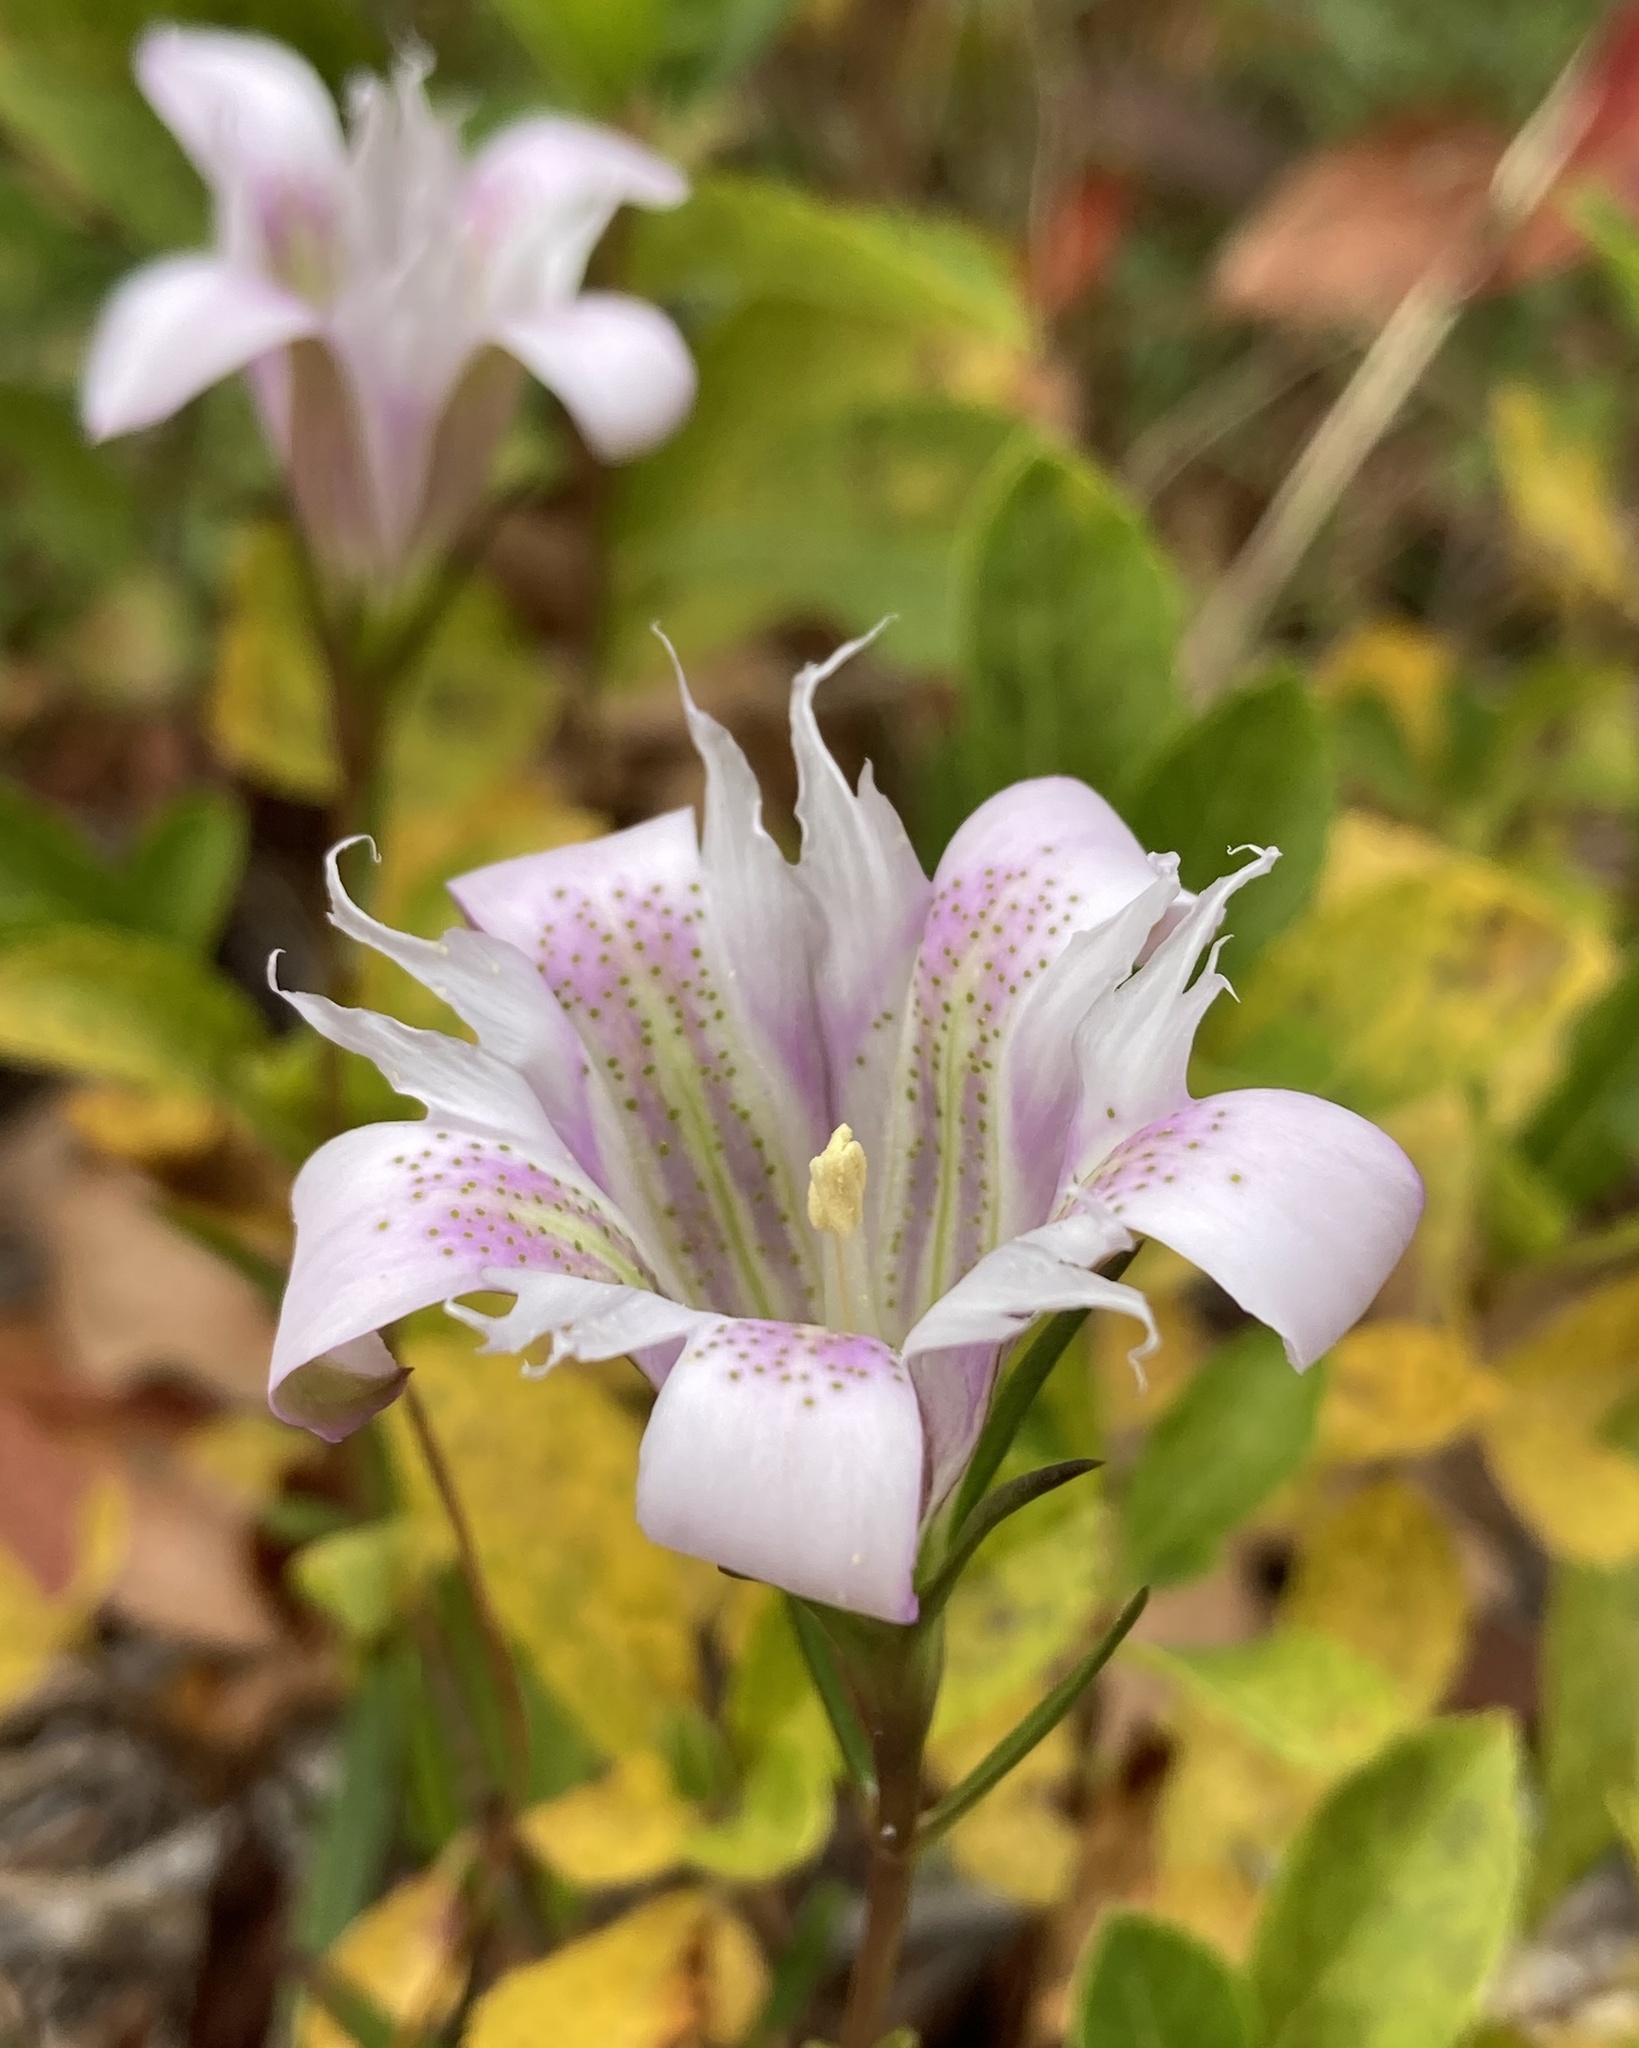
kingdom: Plantae
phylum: Tracheophyta
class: Magnoliopsida
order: Gentianales
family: Gentianaceae
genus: Gentiana
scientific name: Gentiana autumnalis
